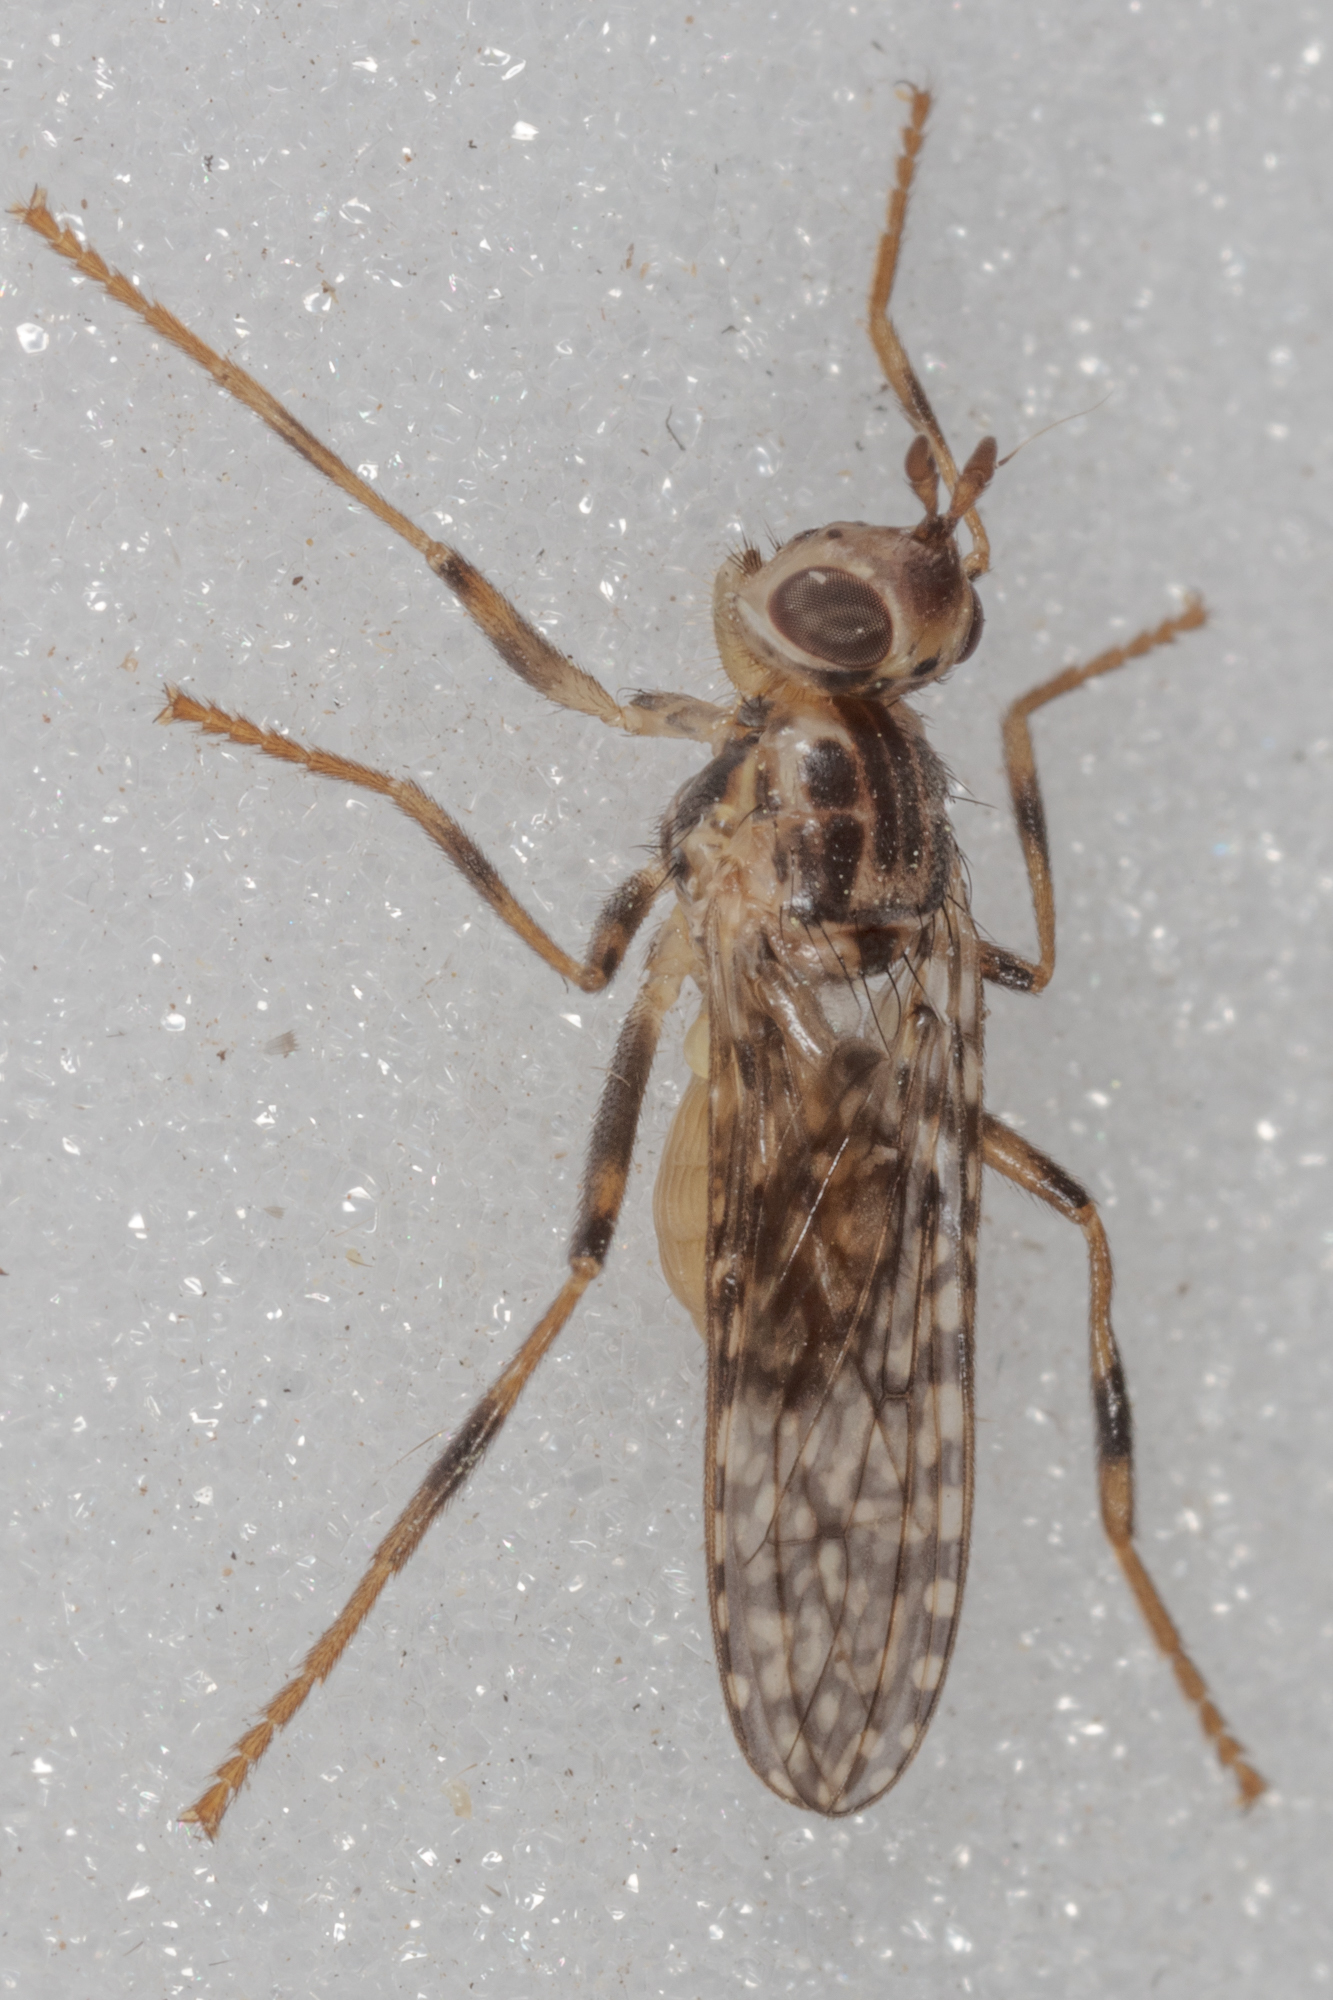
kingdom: Animalia
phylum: Arthropoda
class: Insecta
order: Diptera
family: Pyrgotidae
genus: Boreothrinax
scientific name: Boreothrinax
